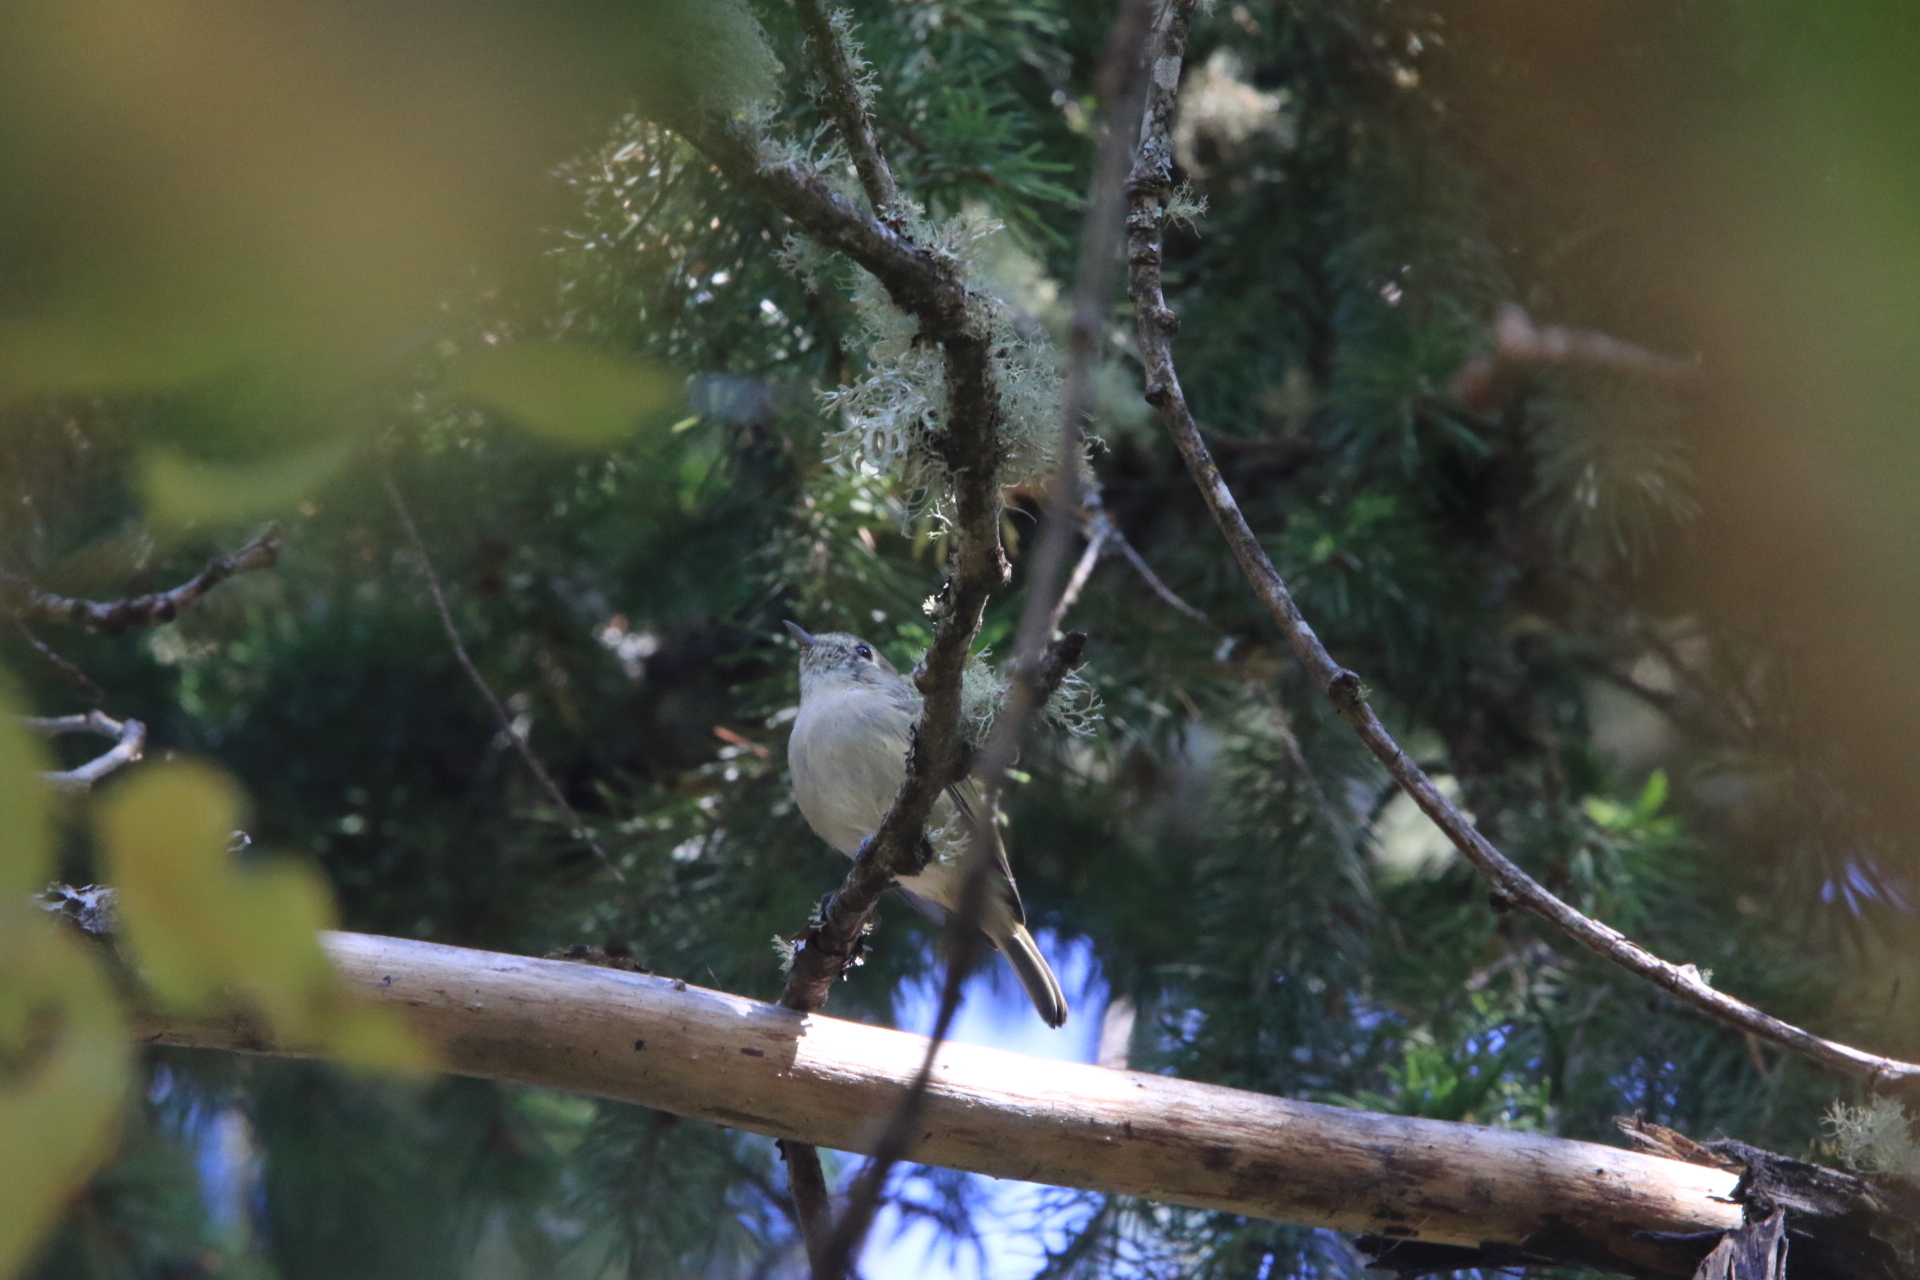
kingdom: Animalia
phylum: Chordata
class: Aves
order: Passeriformes
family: Vireonidae
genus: Vireo
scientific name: Vireo huttoni
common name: Hutton's vireo
